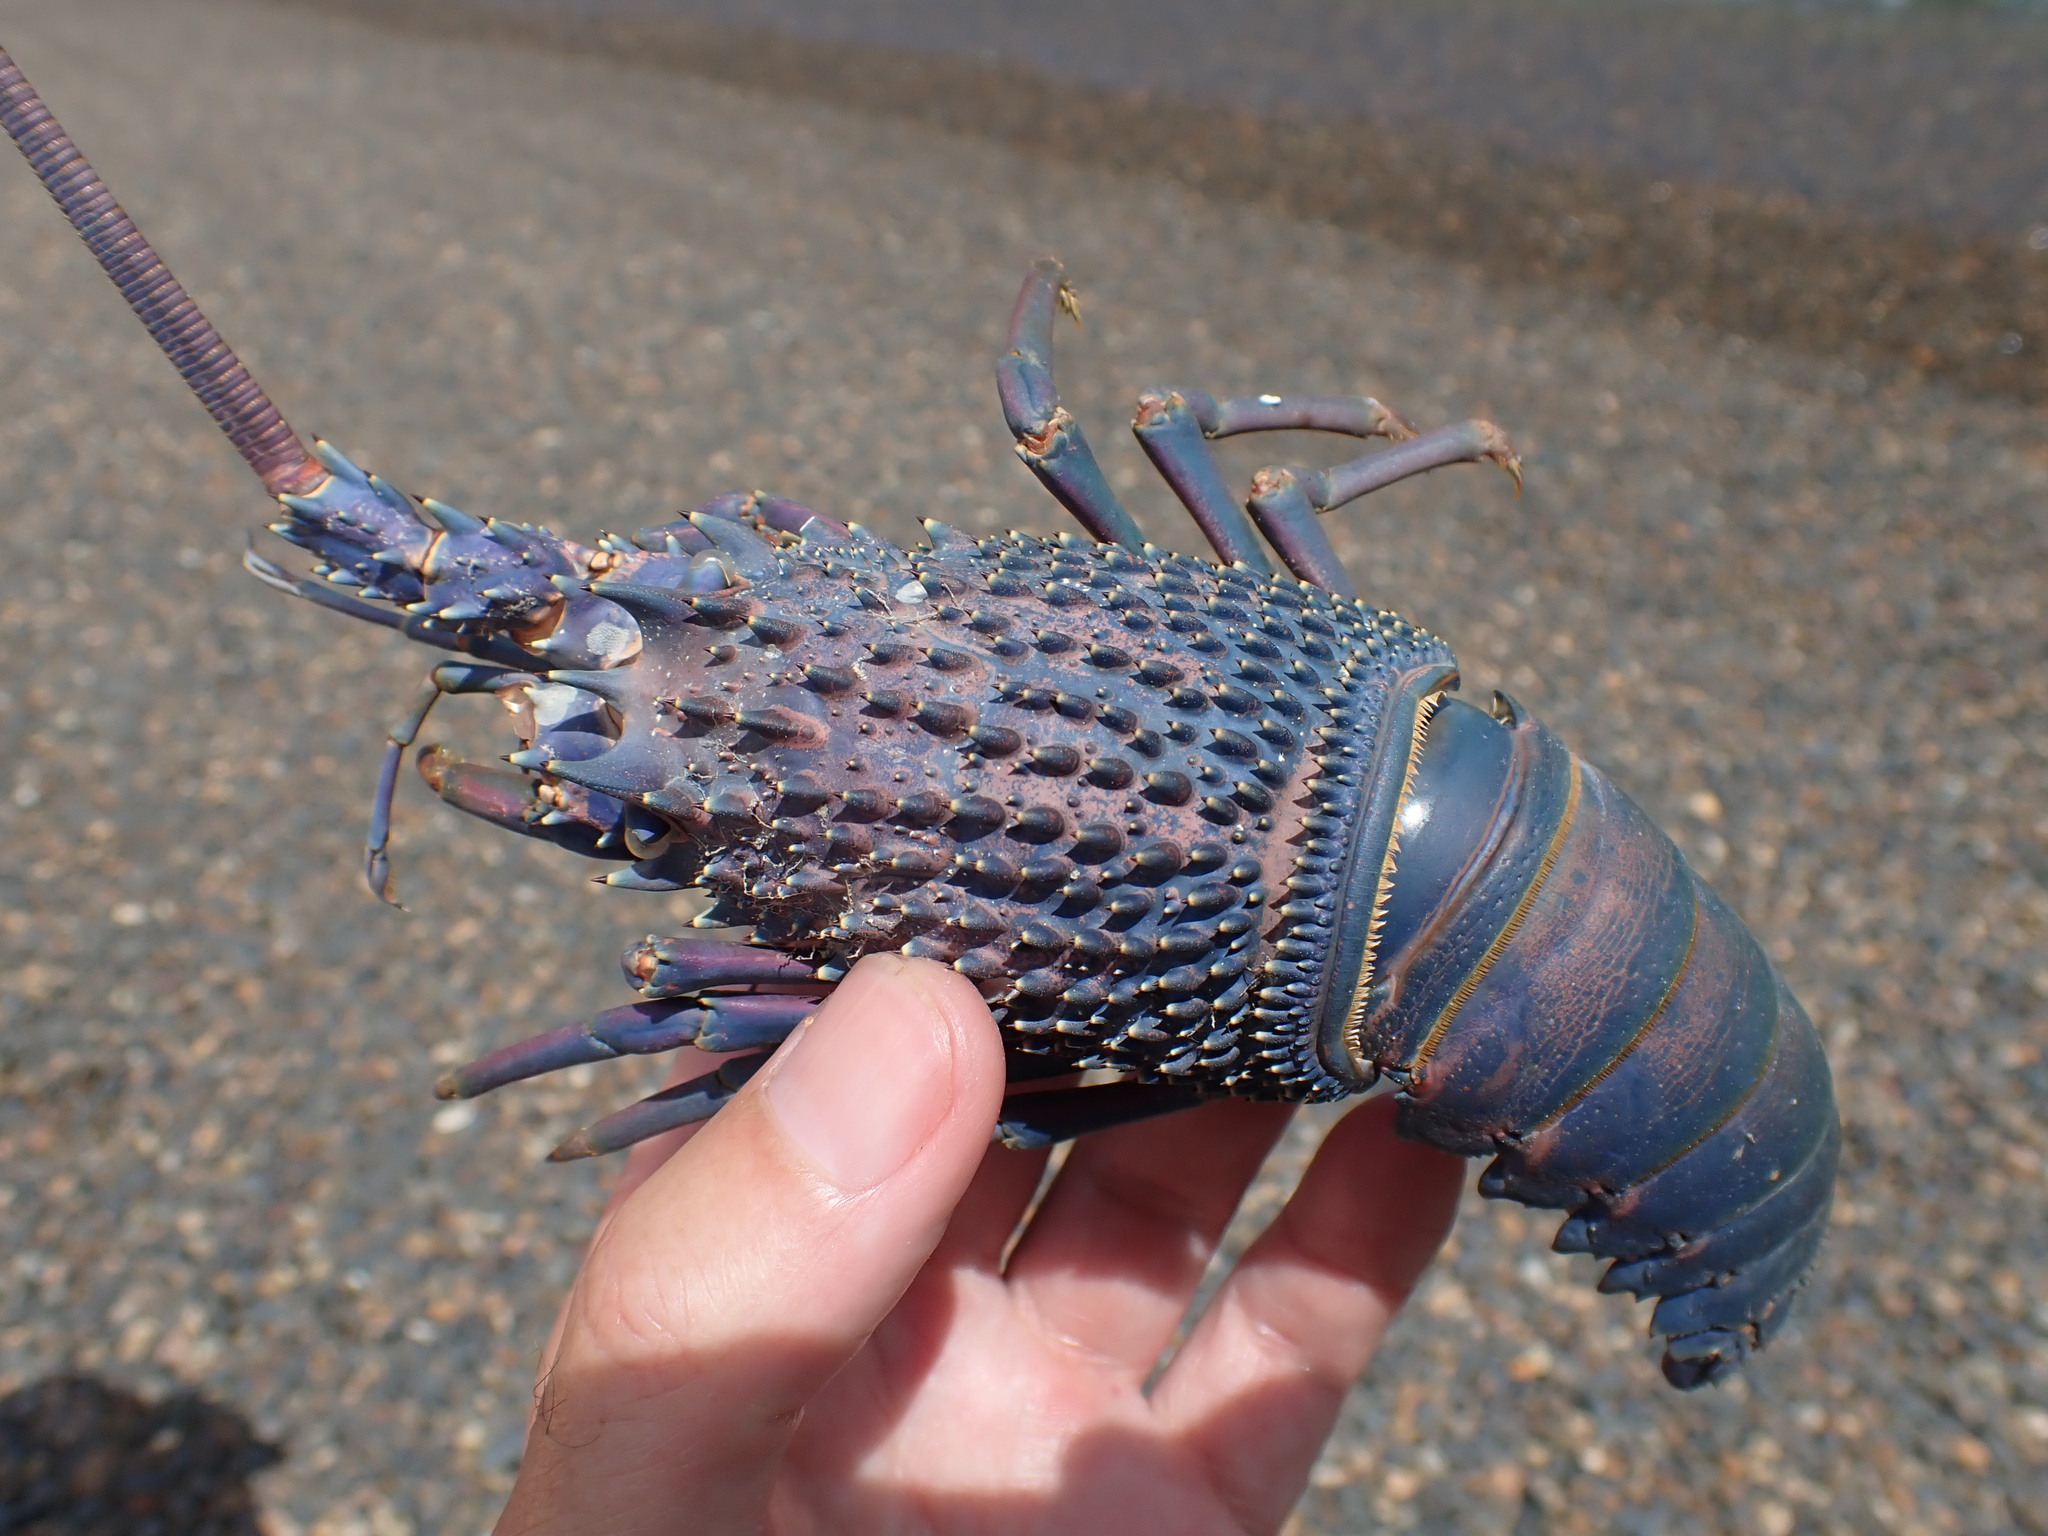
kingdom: Animalia
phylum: Arthropoda
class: Malacostraca
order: Decapoda
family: Palinuridae
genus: Sagmariasus
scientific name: Sagmariasus verreauxi
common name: Green rock lobster
